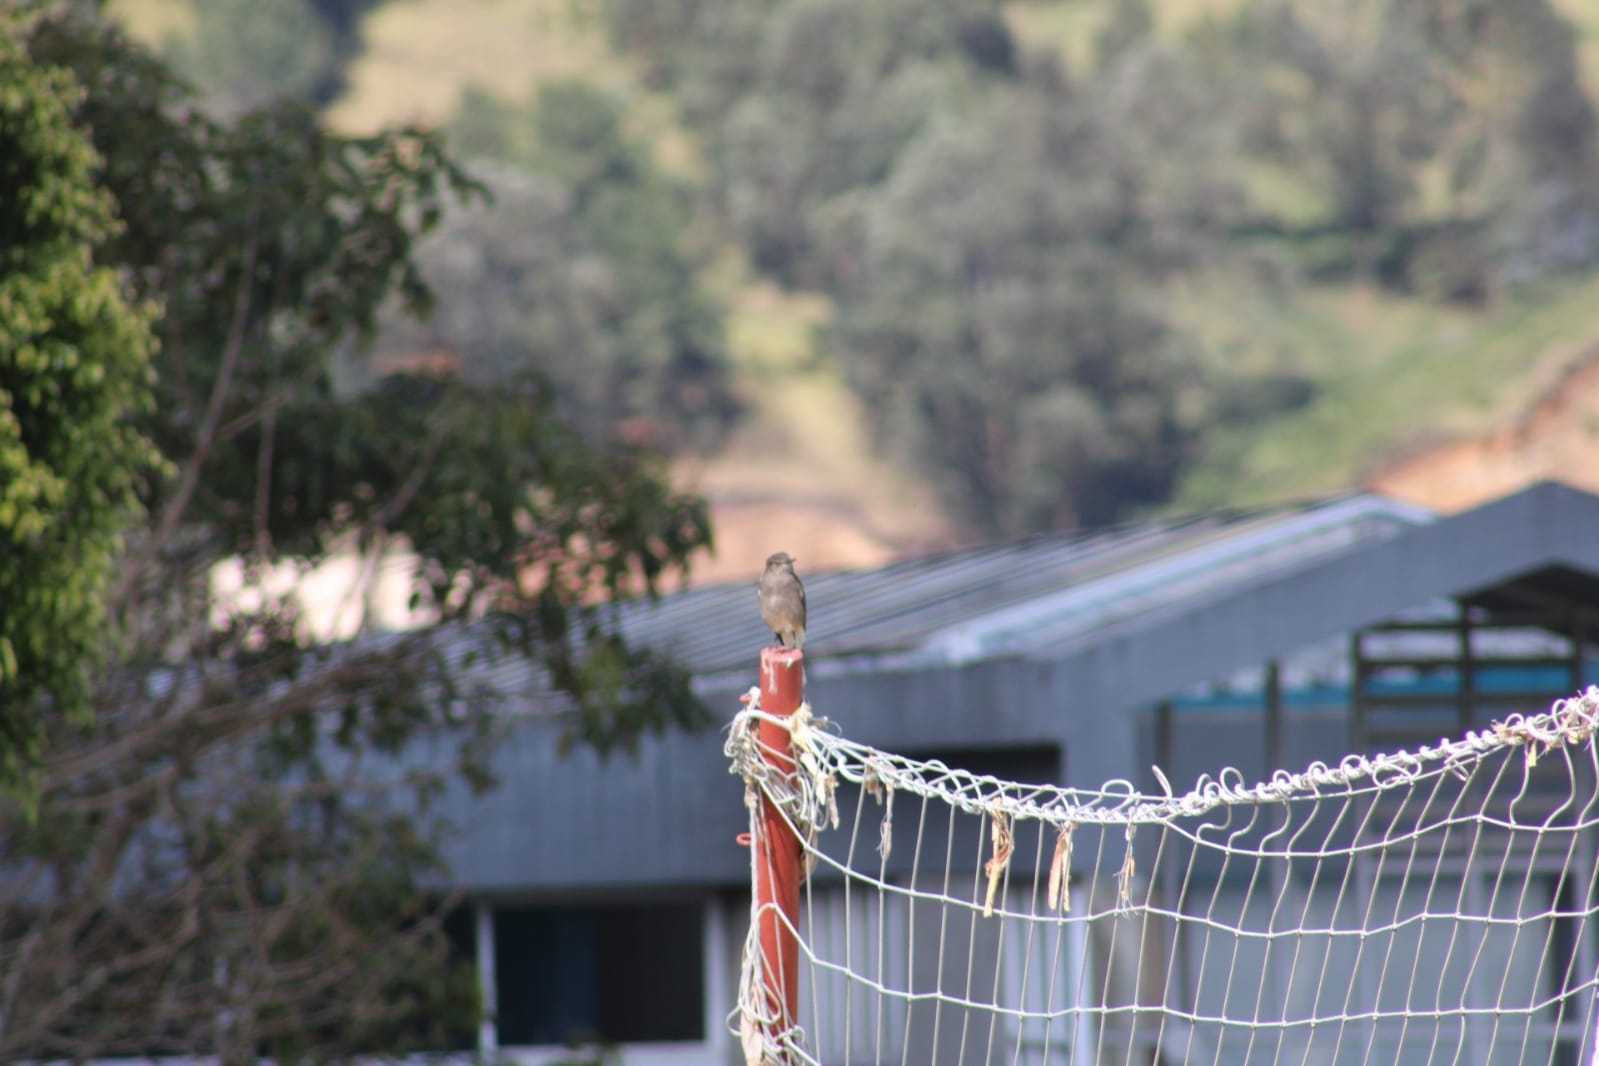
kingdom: Animalia
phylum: Chordata
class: Aves
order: Passeriformes
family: Tyrannidae
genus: Agriornis
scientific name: Agriornis montanus
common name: Black-billed shrike-tyrant
